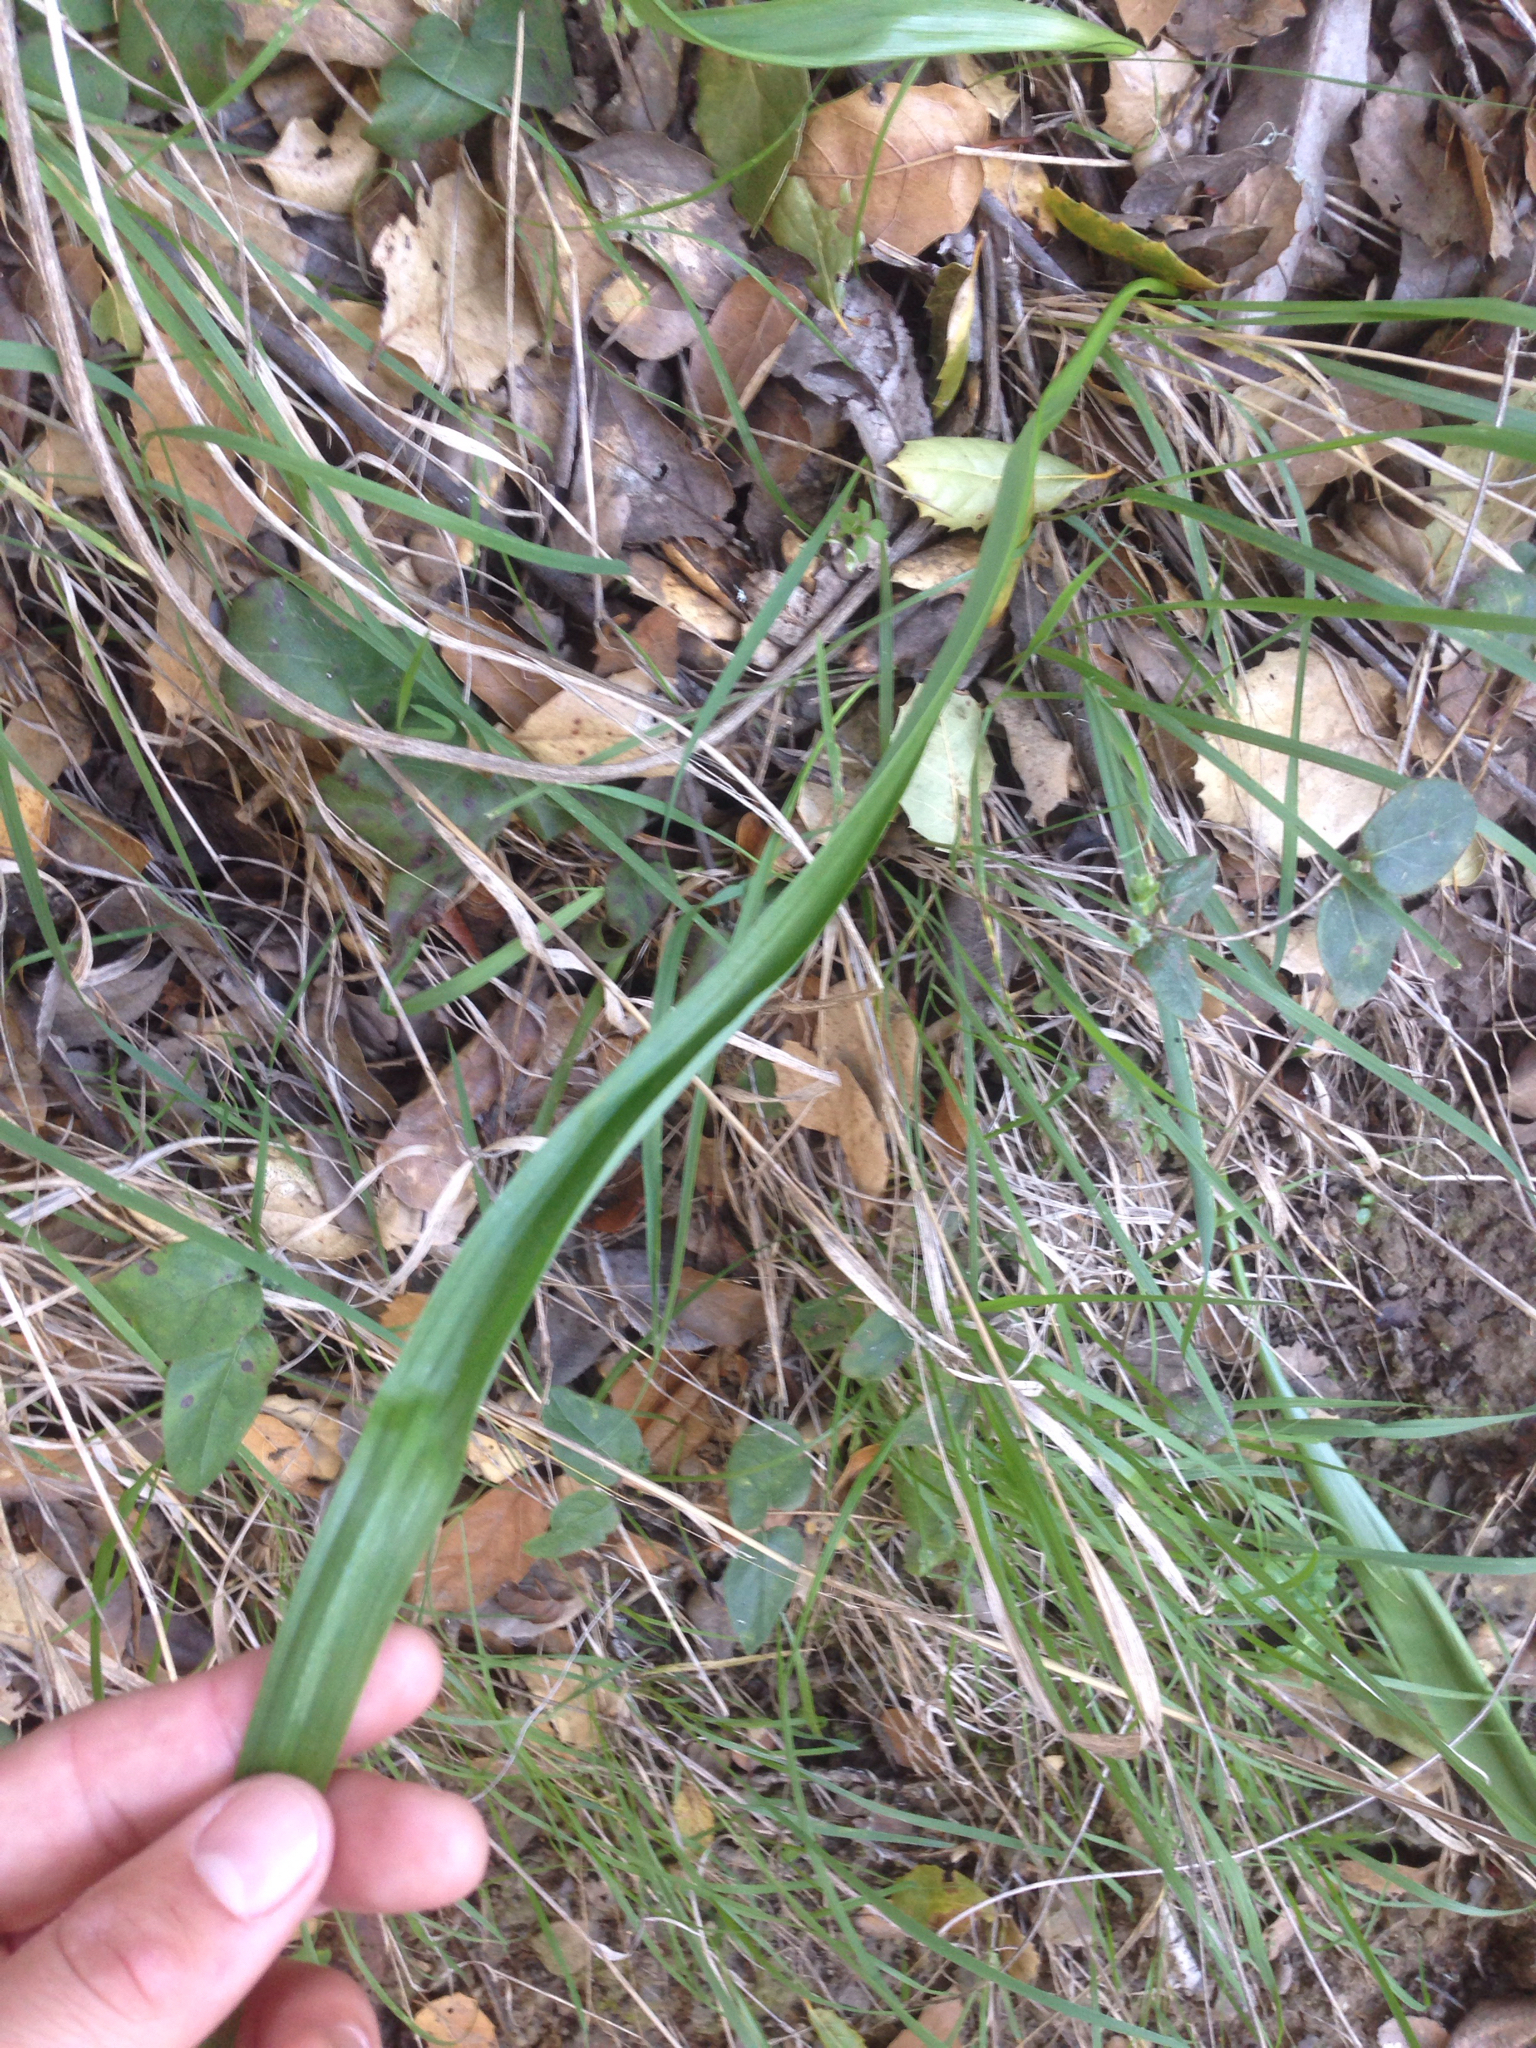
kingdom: Plantae
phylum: Tracheophyta
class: Liliopsida
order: Liliales
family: Liliaceae
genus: Calochortus
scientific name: Calochortus albus
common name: Fairy-lantern
